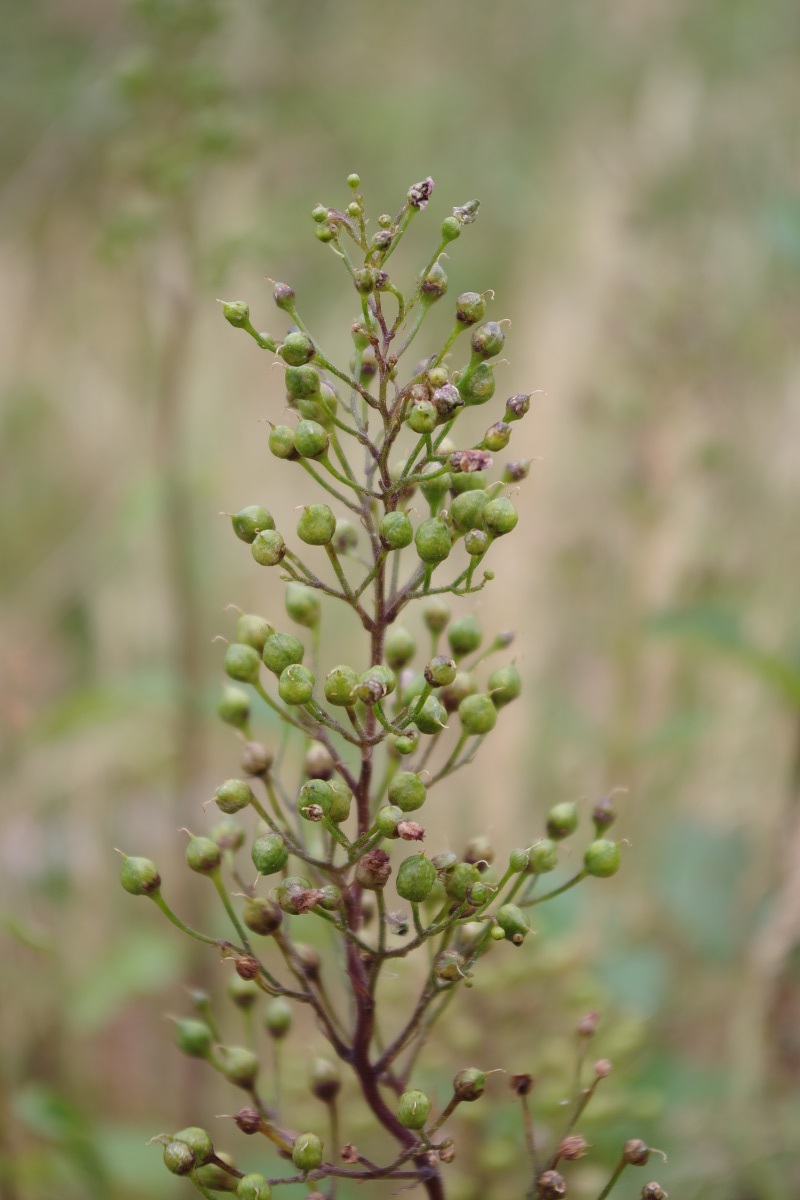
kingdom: Plantae
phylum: Tracheophyta
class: Magnoliopsida
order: Lamiales
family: Scrophulariaceae
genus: Scrophularia
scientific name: Scrophularia nodosa
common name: Common figwort
